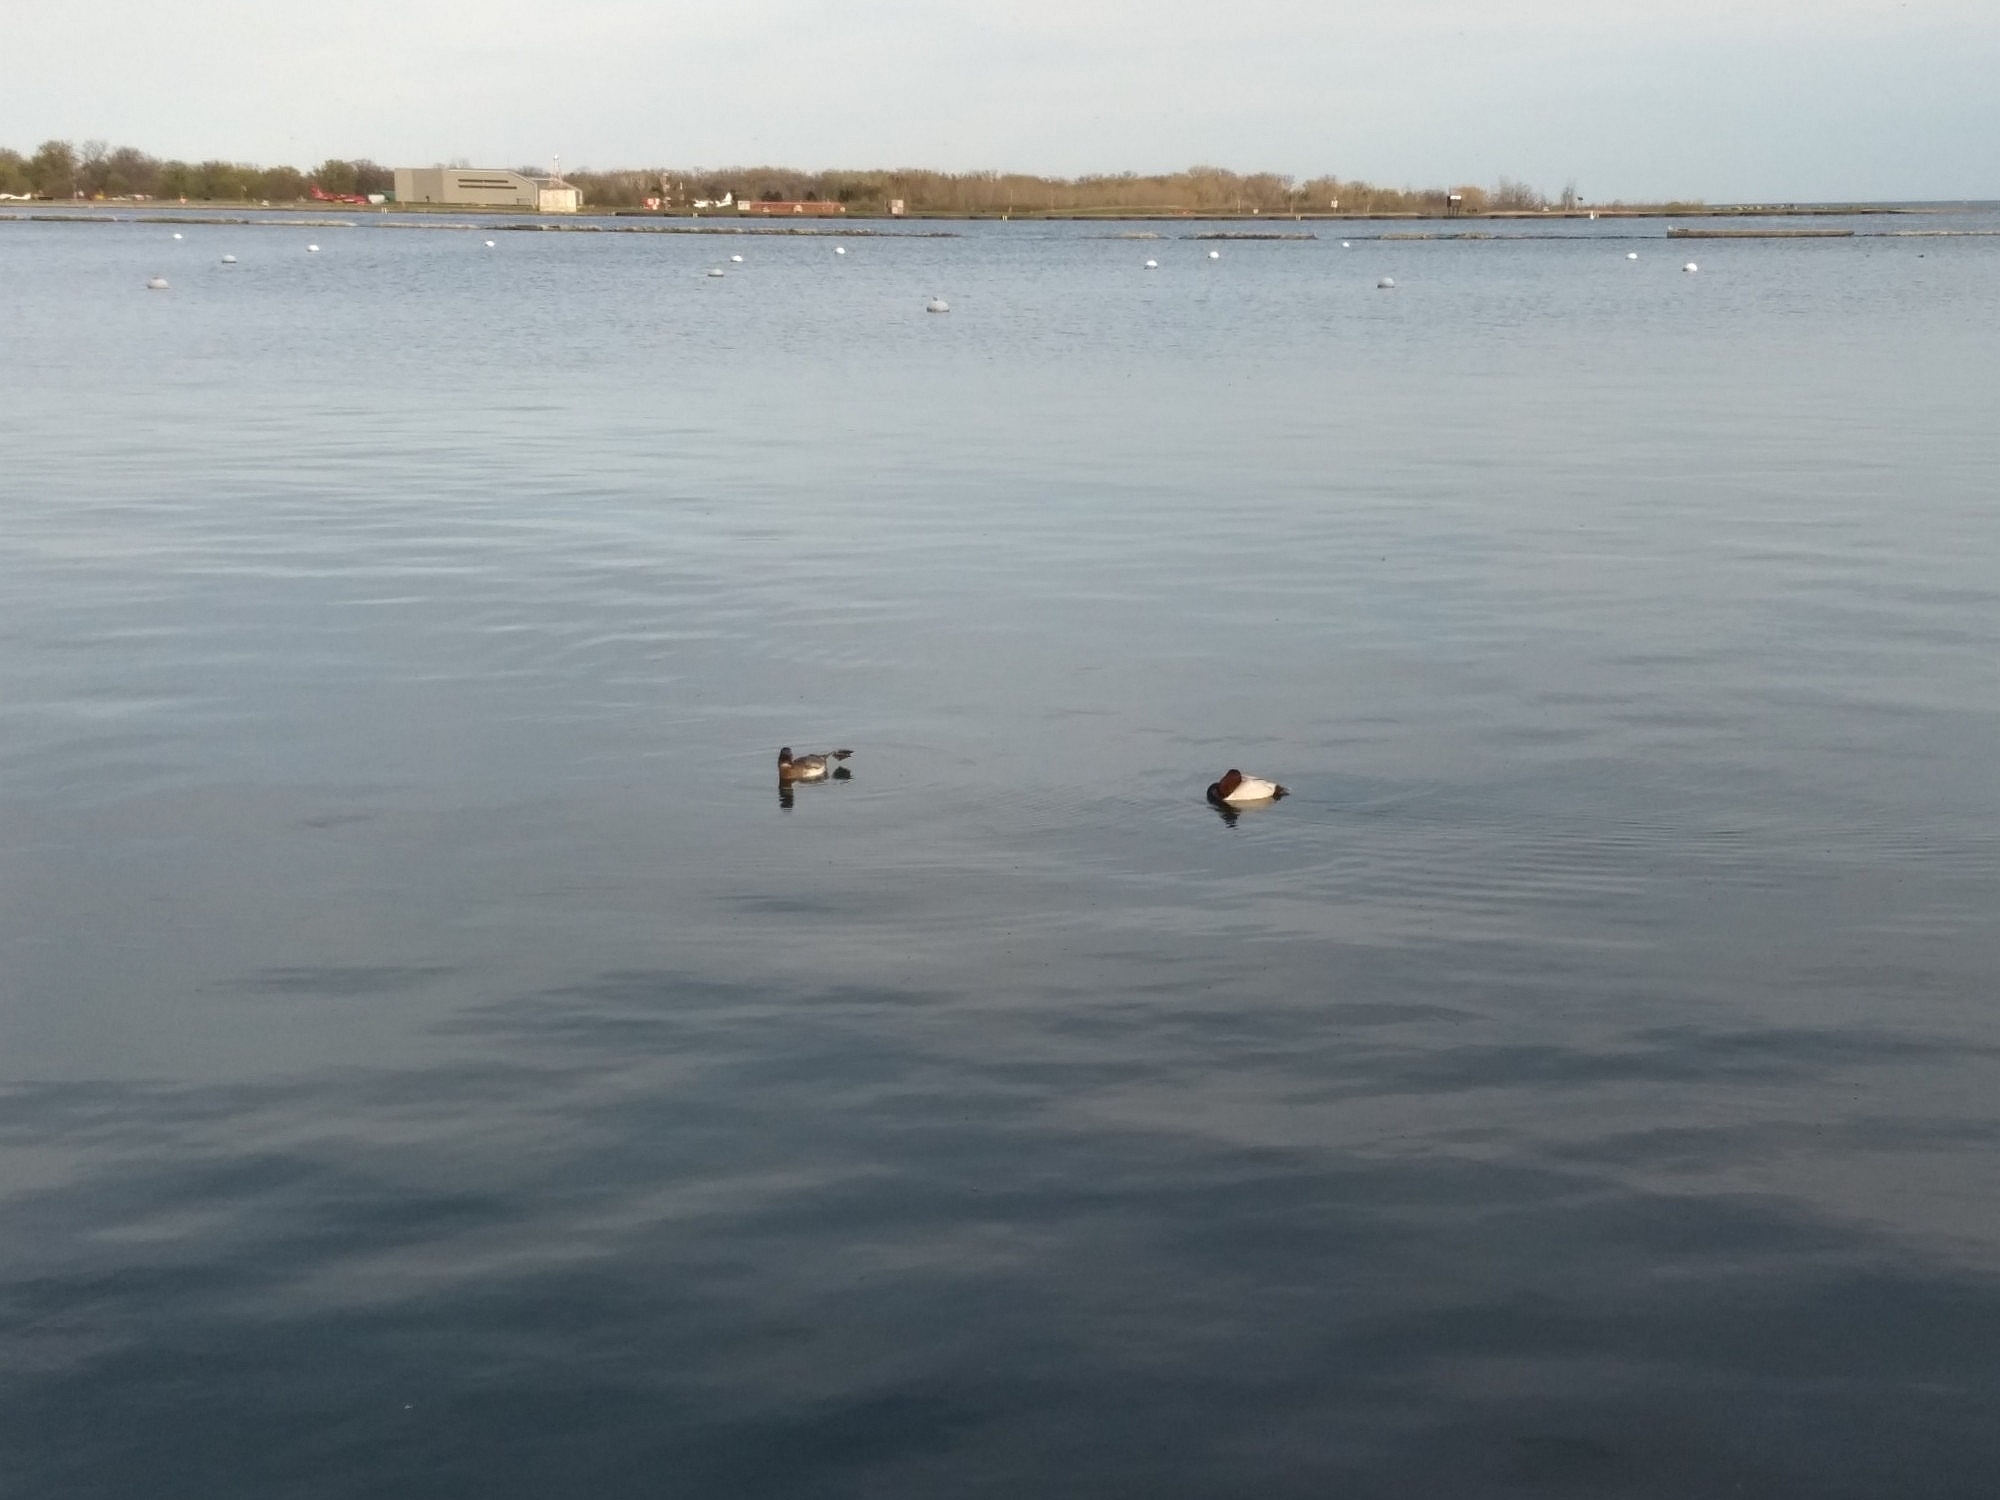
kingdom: Animalia
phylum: Chordata
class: Aves
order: Anseriformes
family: Anatidae
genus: Aythya
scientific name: Aythya valisineria
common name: Canvasback
